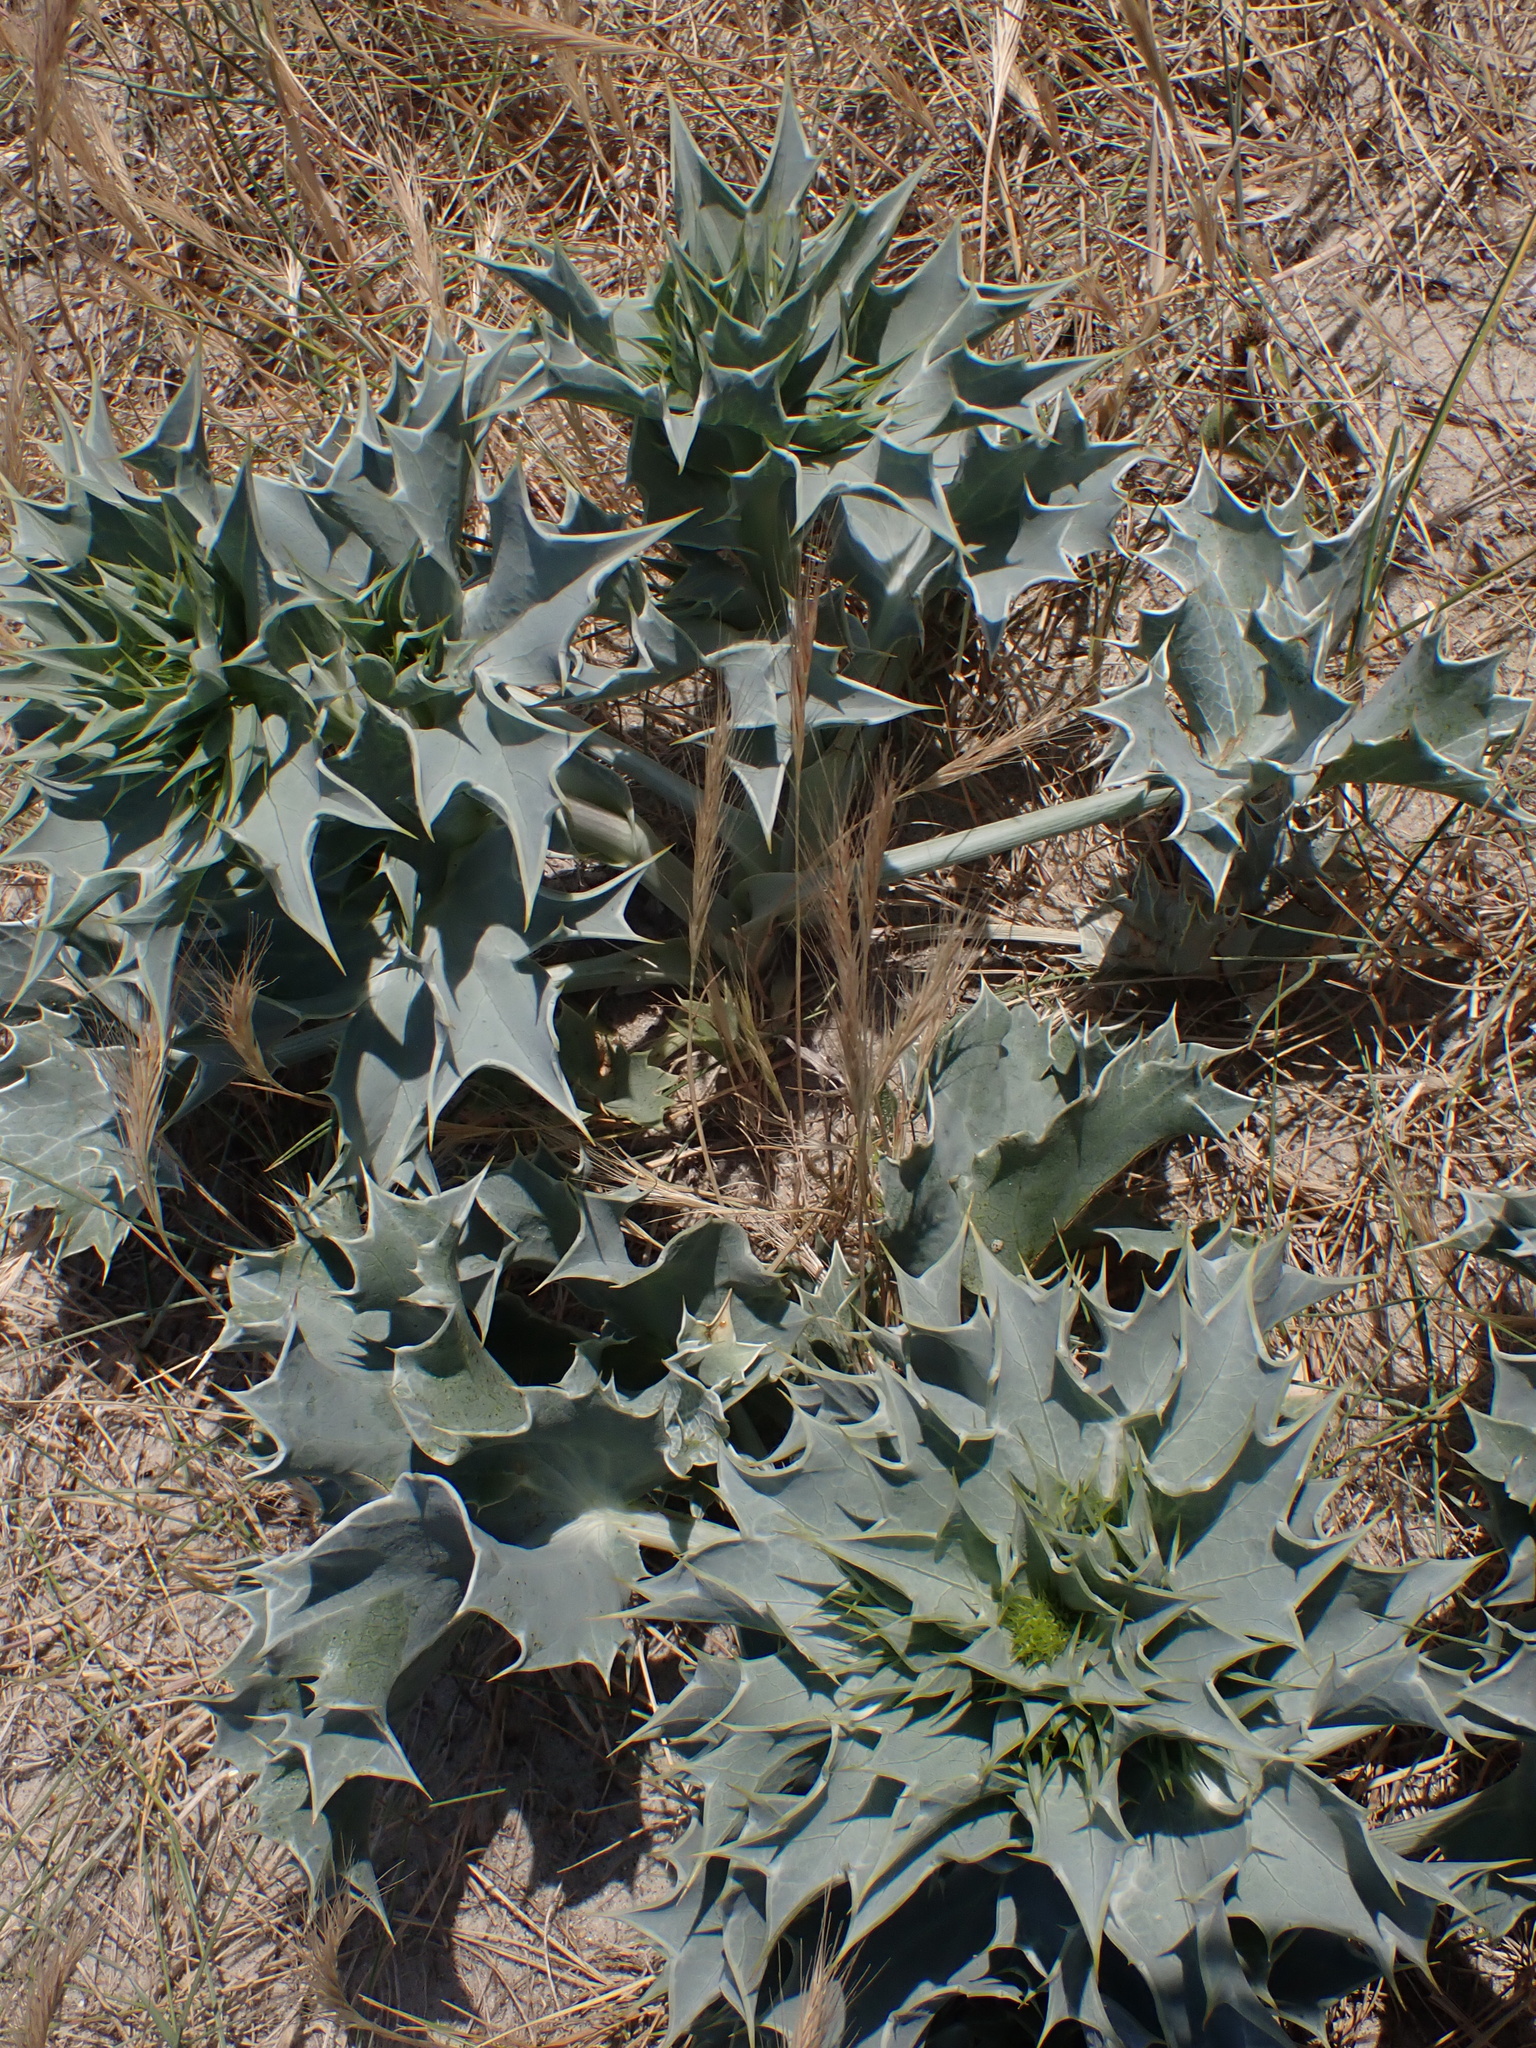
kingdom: Plantae
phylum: Tracheophyta
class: Magnoliopsida
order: Apiales
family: Apiaceae
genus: Eryngium
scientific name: Eryngium maritimum
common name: Sea-holly
